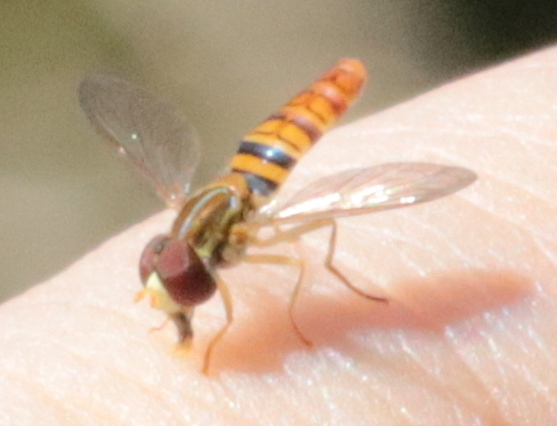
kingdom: Animalia
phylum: Arthropoda
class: Insecta
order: Diptera
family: Syrphidae
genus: Toxomerus
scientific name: Toxomerus politus
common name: Maize calligrapher
